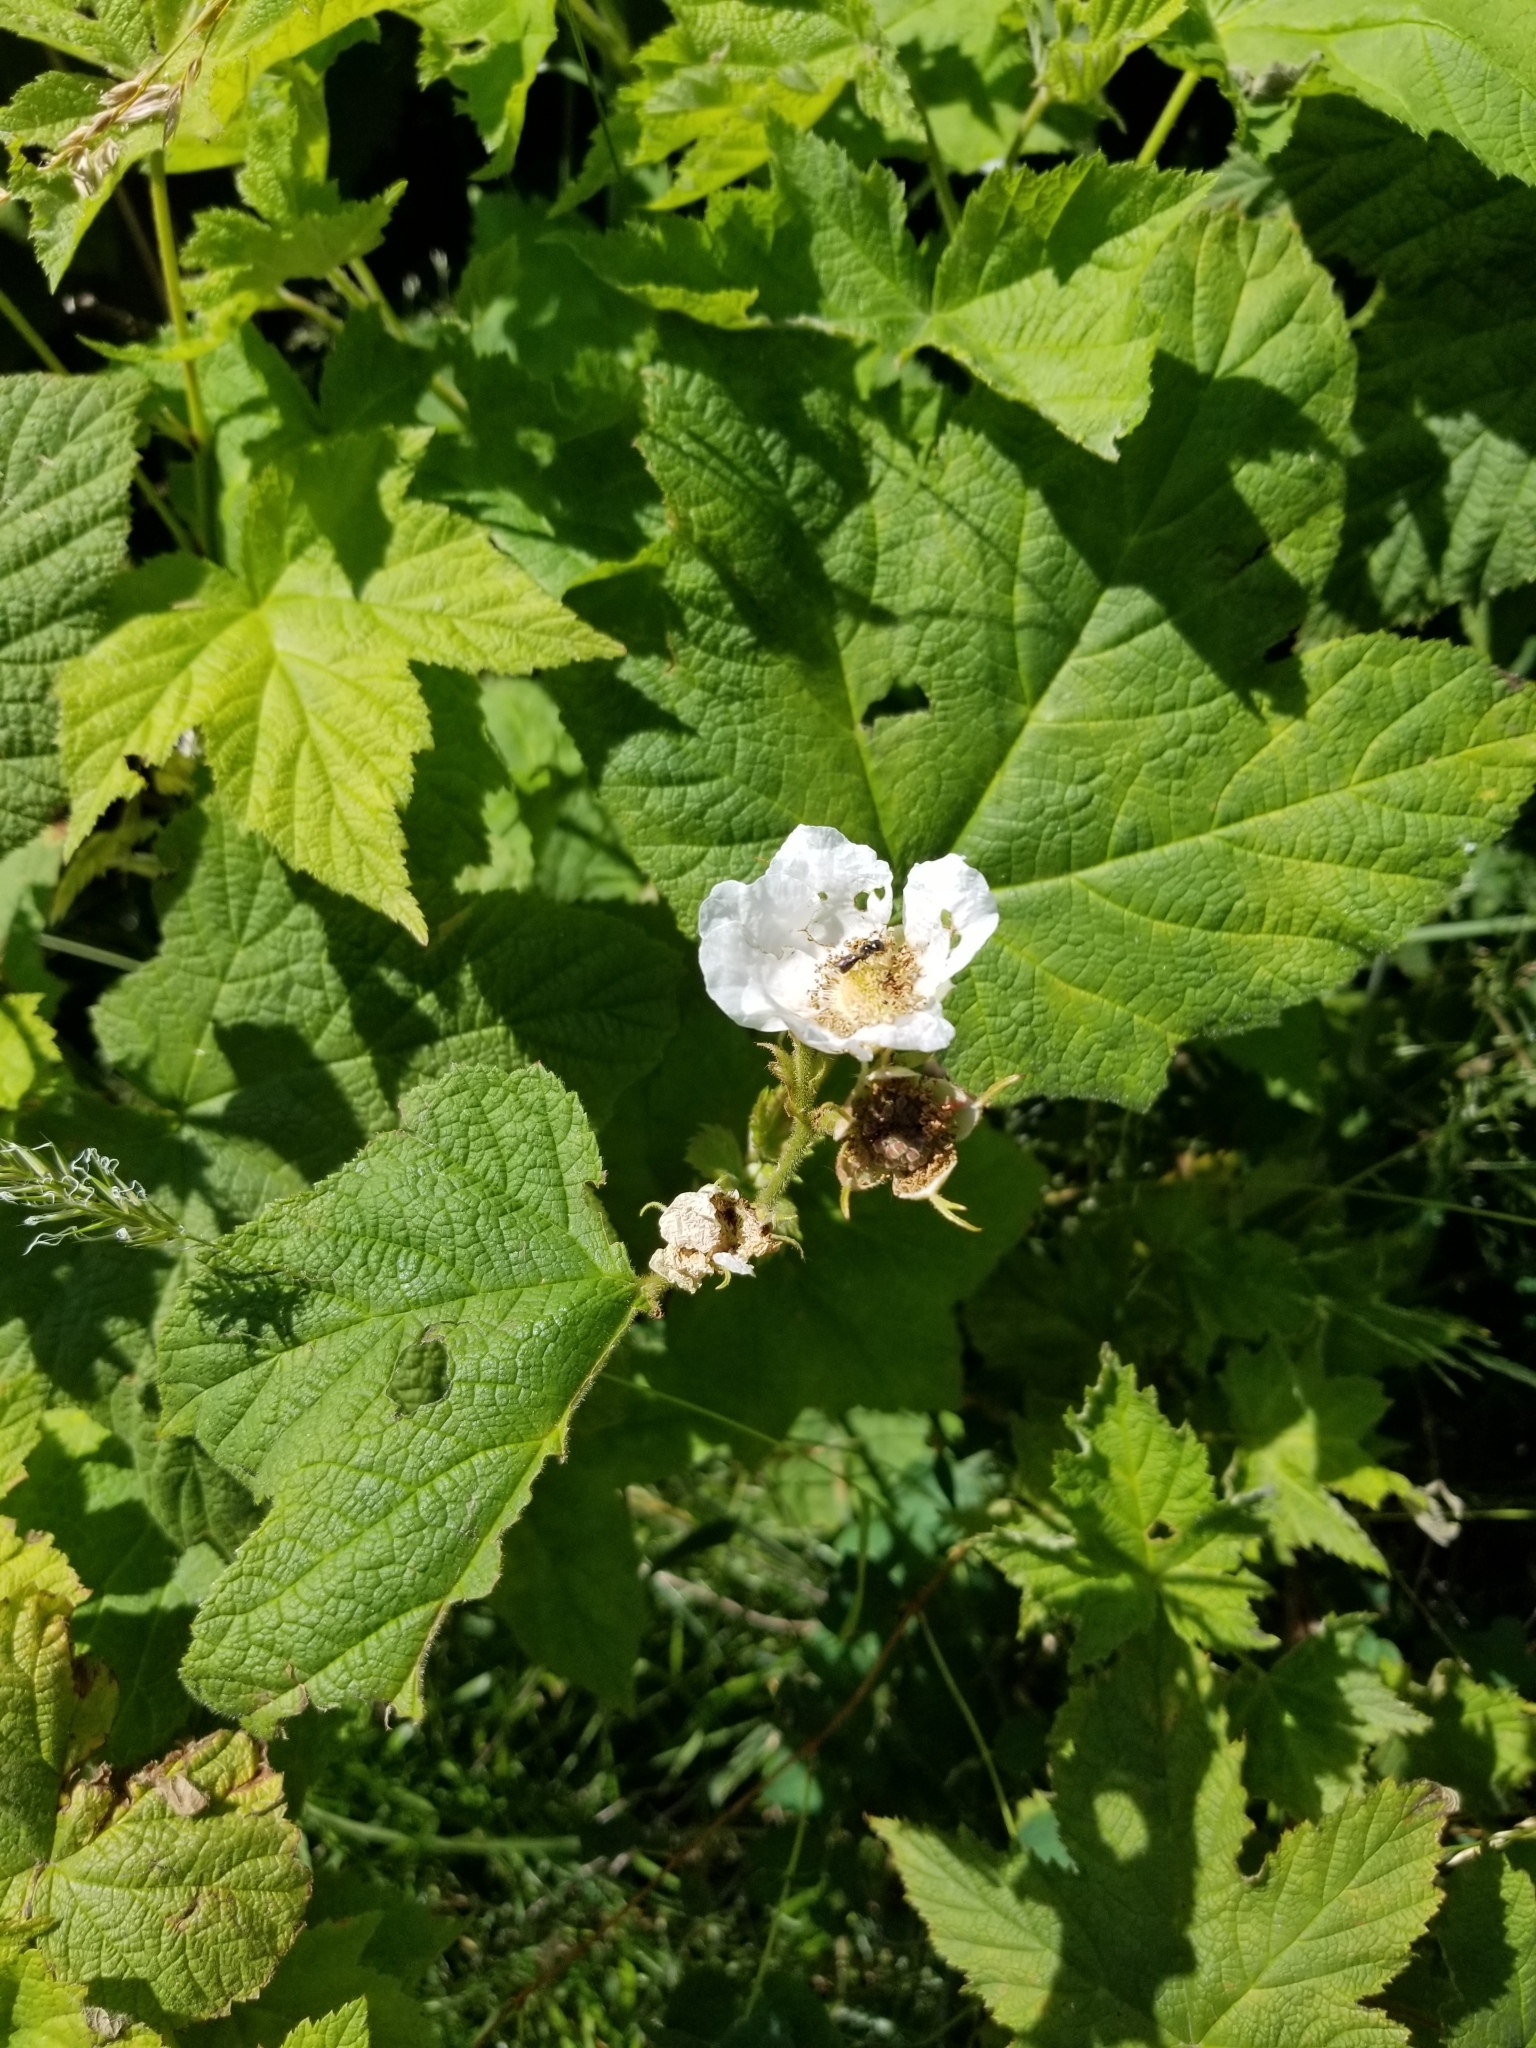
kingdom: Plantae
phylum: Tracheophyta
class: Magnoliopsida
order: Rosales
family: Rosaceae
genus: Rubus
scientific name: Rubus parviflorus
